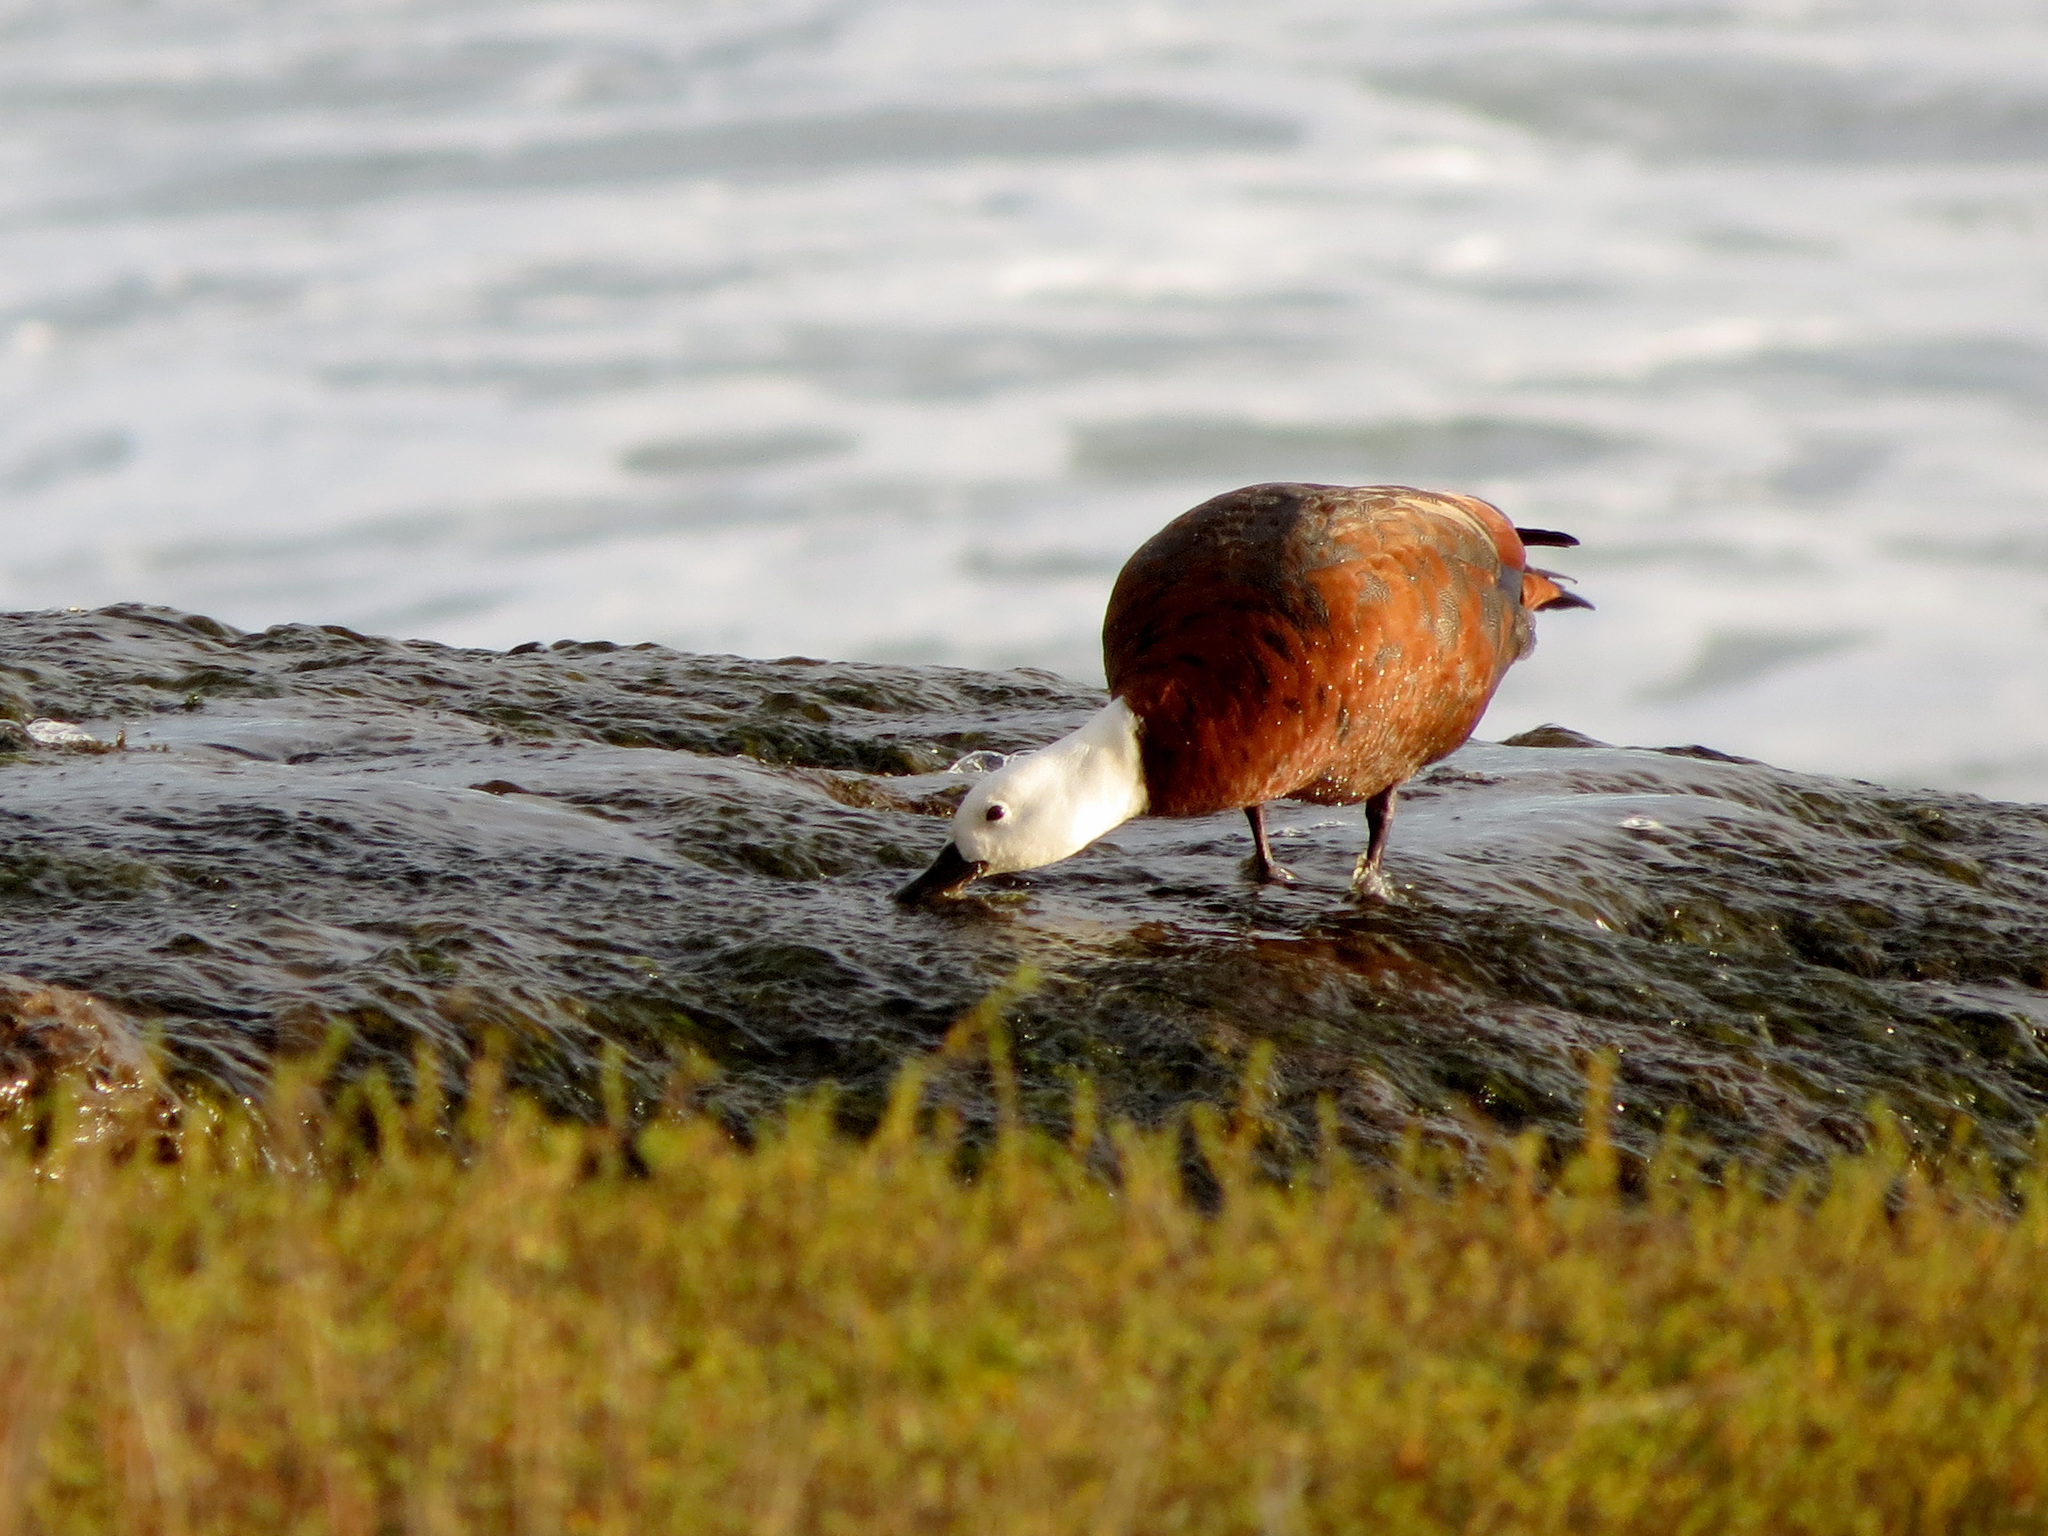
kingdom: Animalia
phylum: Chordata
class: Aves
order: Anseriformes
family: Anatidae
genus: Tadorna
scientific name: Tadorna variegata
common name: Paradise shelduck
